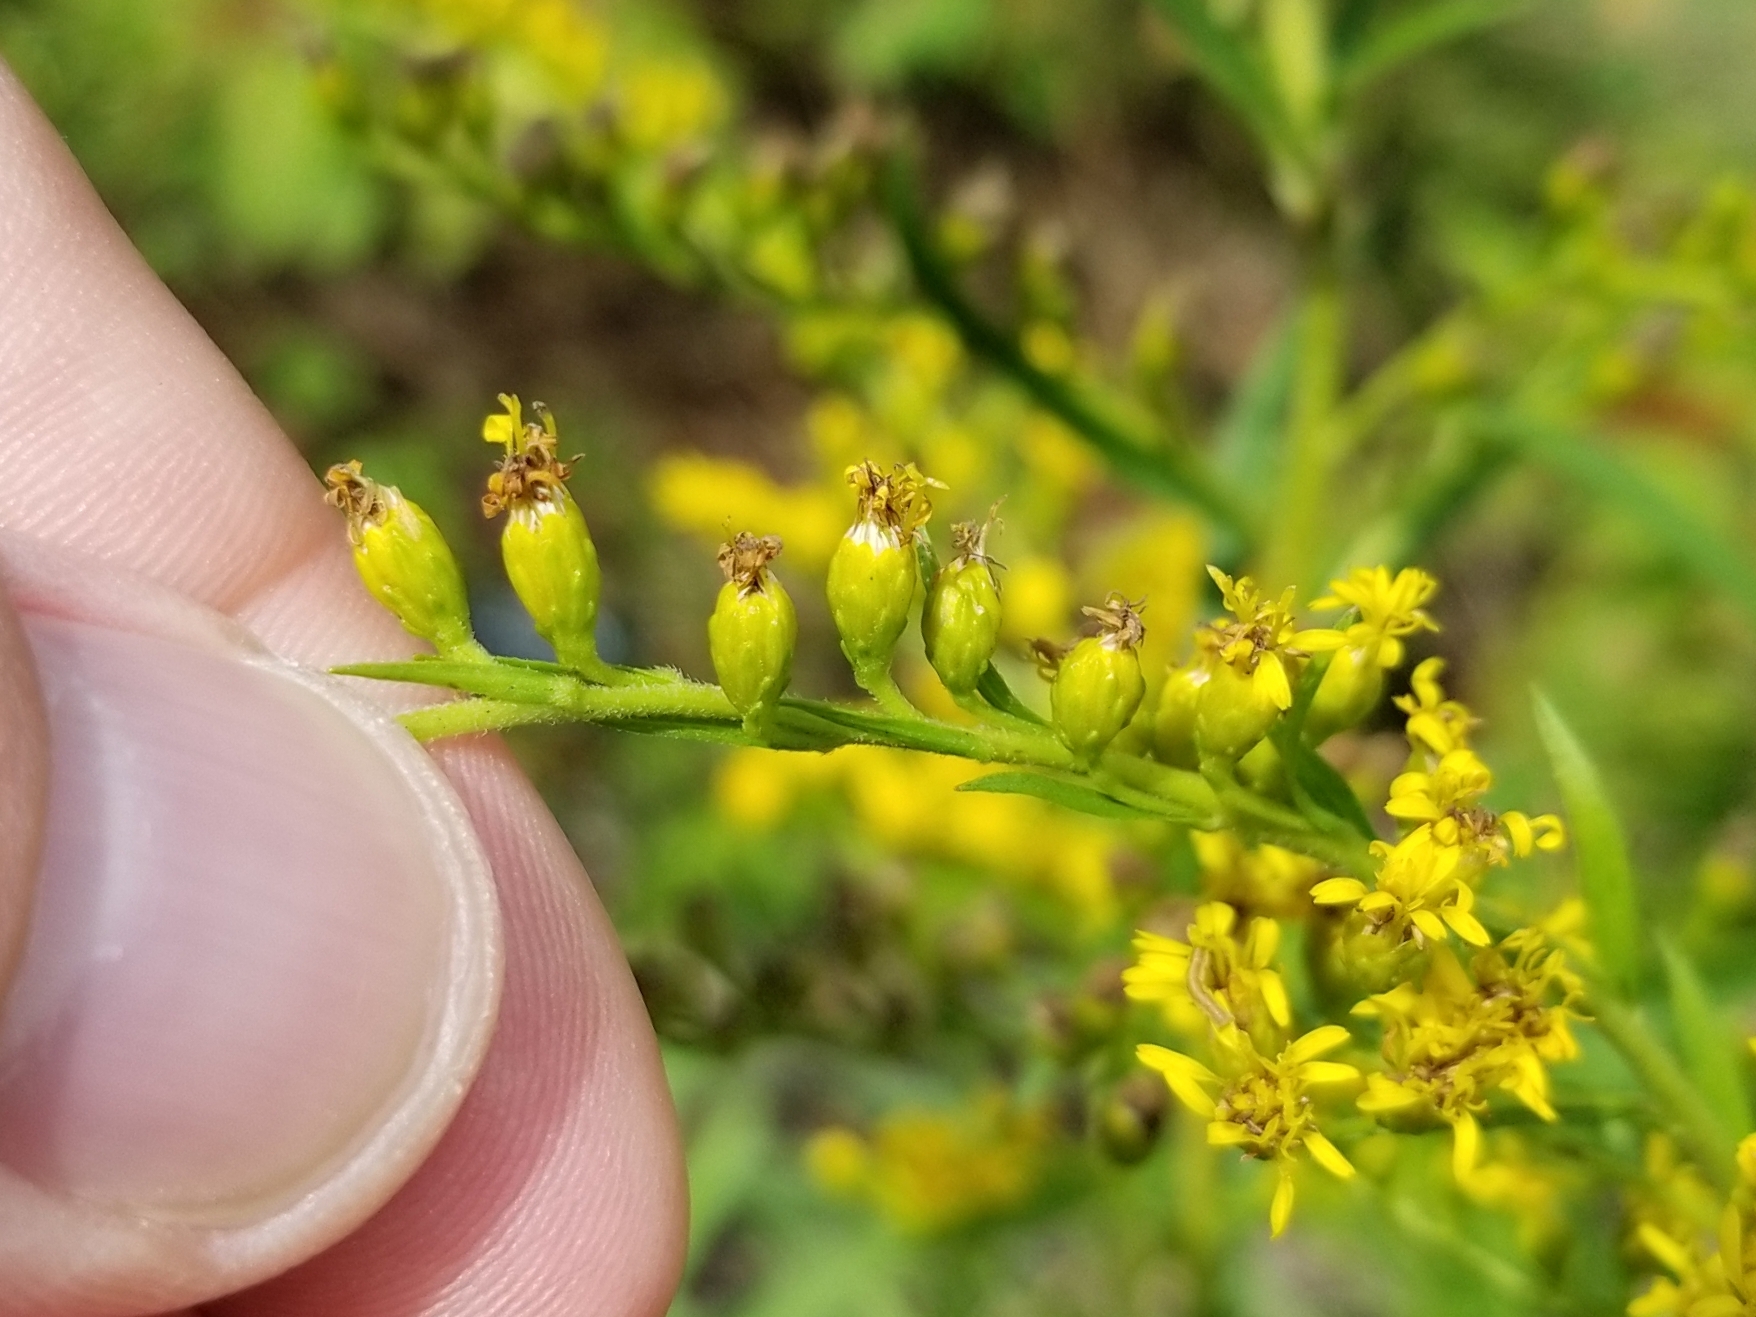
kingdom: Plantae
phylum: Tracheophyta
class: Magnoliopsida
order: Asterales
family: Asteraceae
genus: Solidago
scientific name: Solidago leavenworthii
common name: Leavenworth's goldenrod
